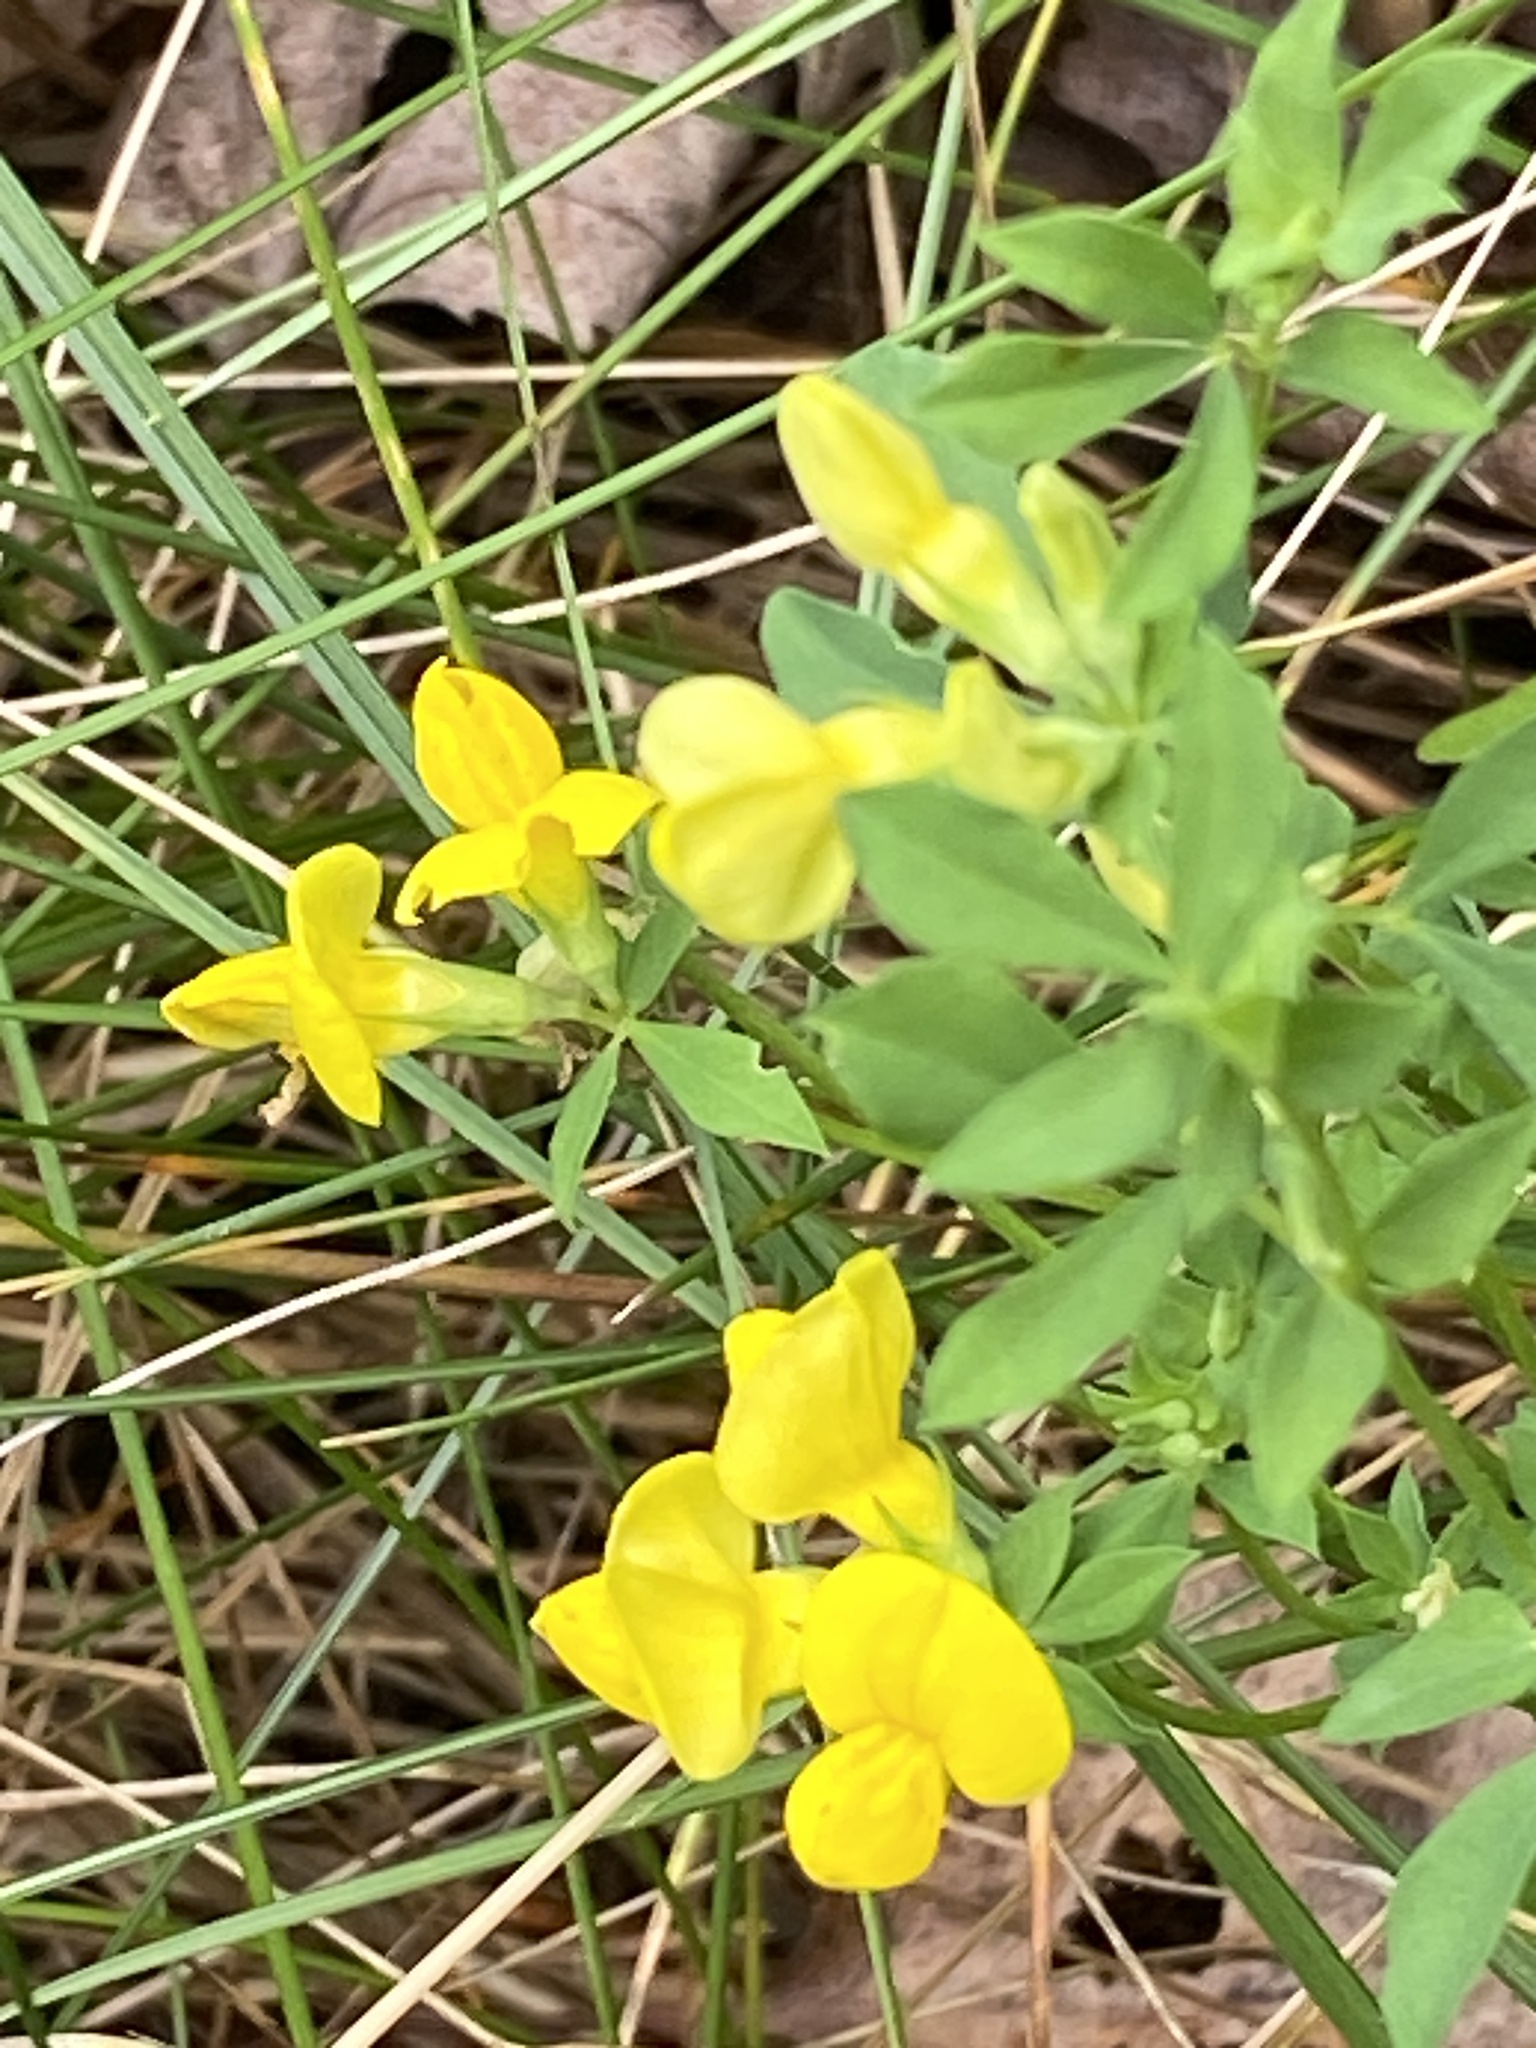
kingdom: Plantae
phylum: Tracheophyta
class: Magnoliopsida
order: Fabales
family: Fabaceae
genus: Lotus
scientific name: Lotus corniculatus
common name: Common bird's-foot-trefoil
